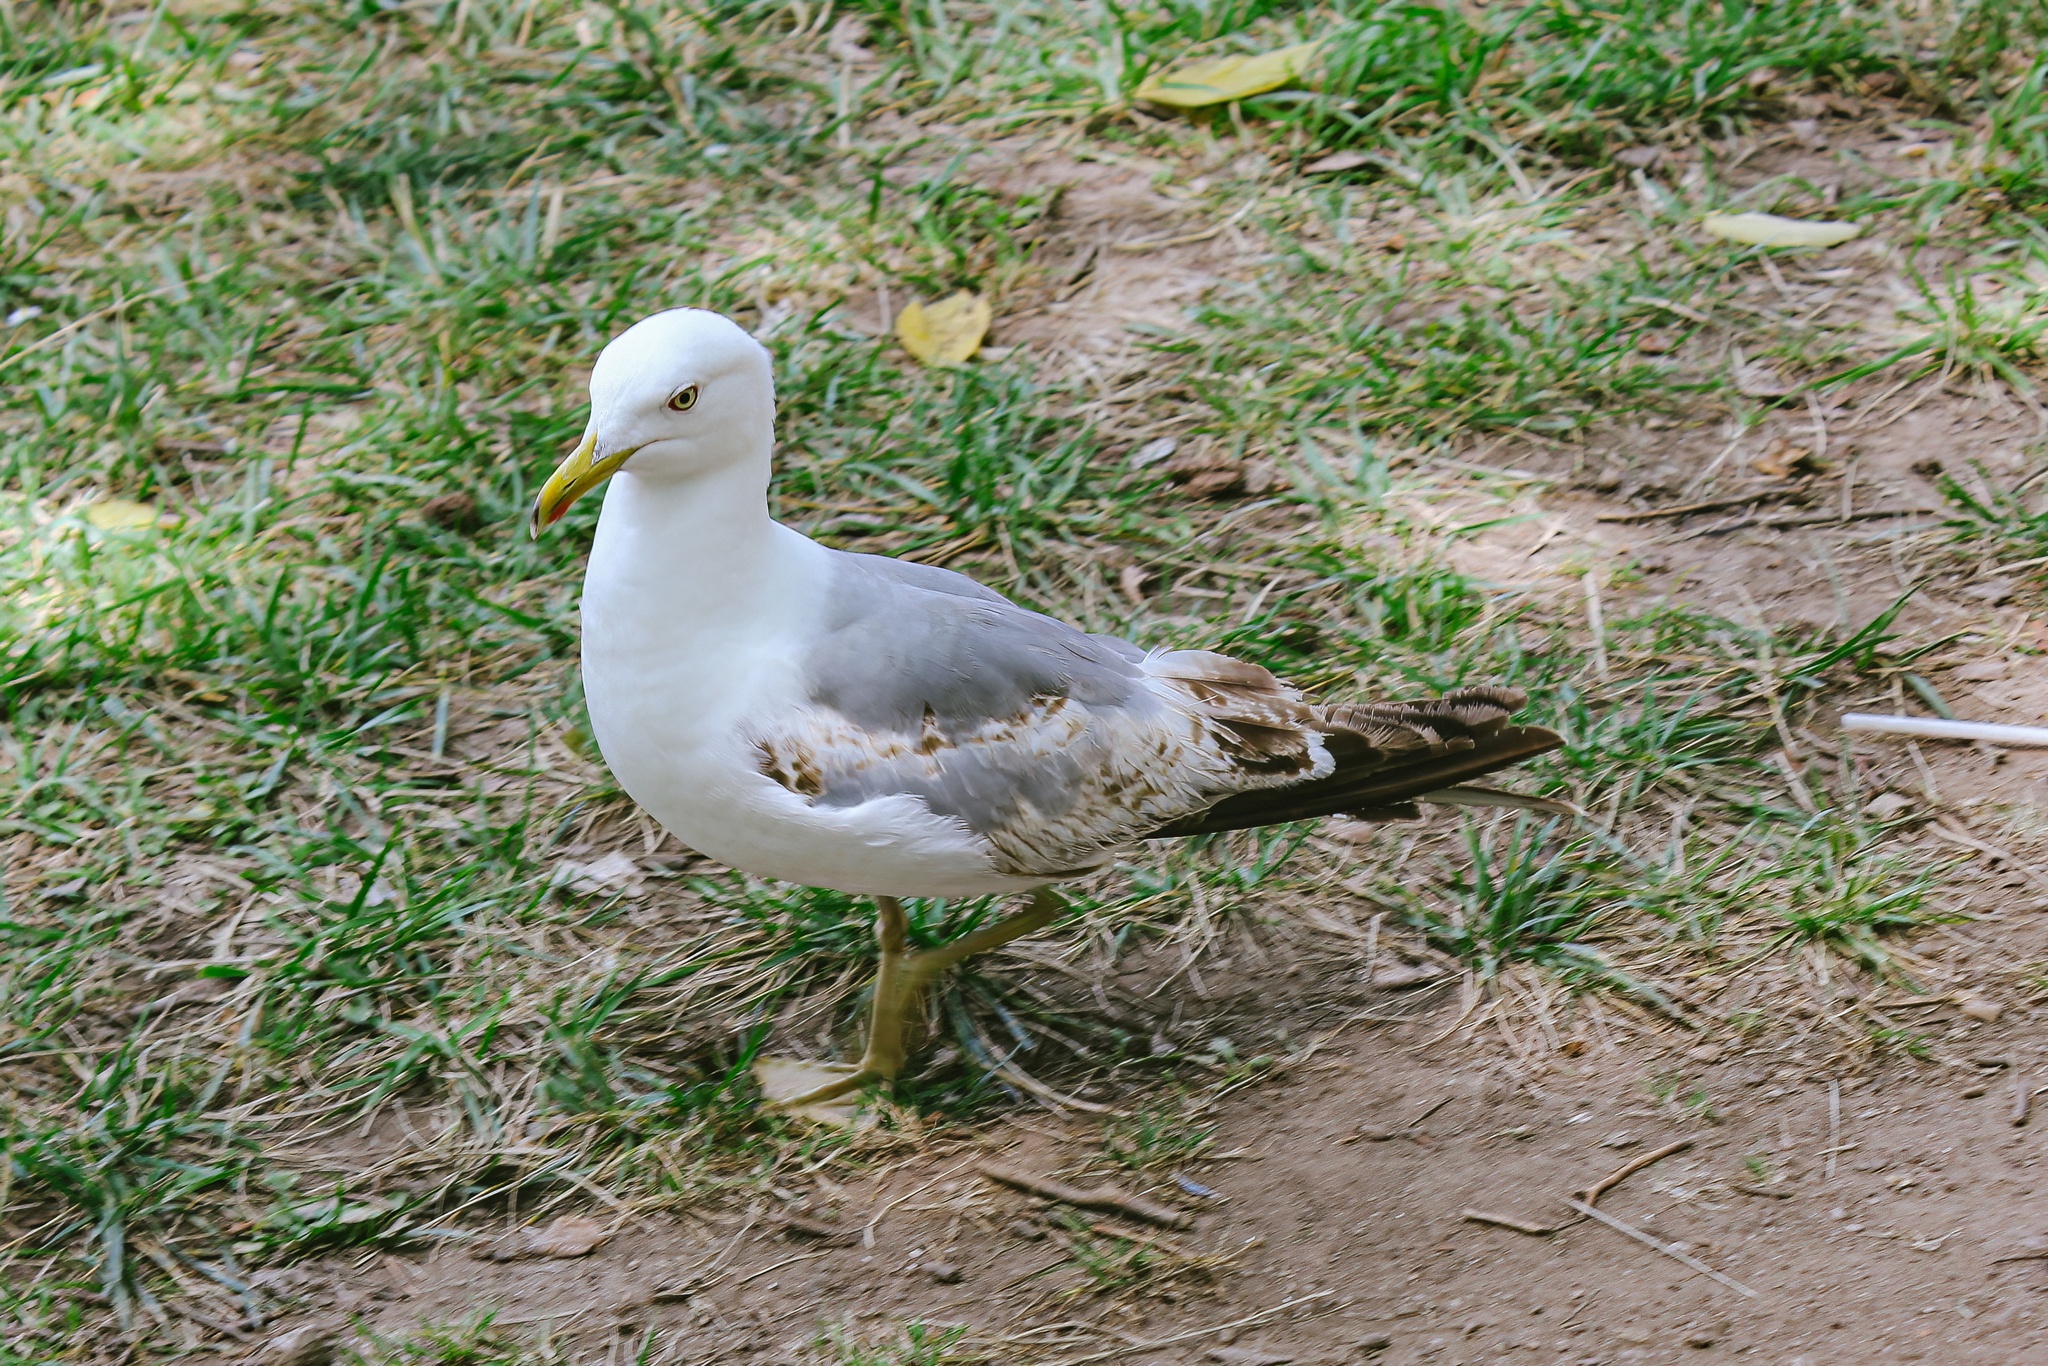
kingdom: Animalia
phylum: Chordata
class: Aves
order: Charadriiformes
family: Laridae
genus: Larus
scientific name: Larus michahellis
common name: Yellow-legged gull
